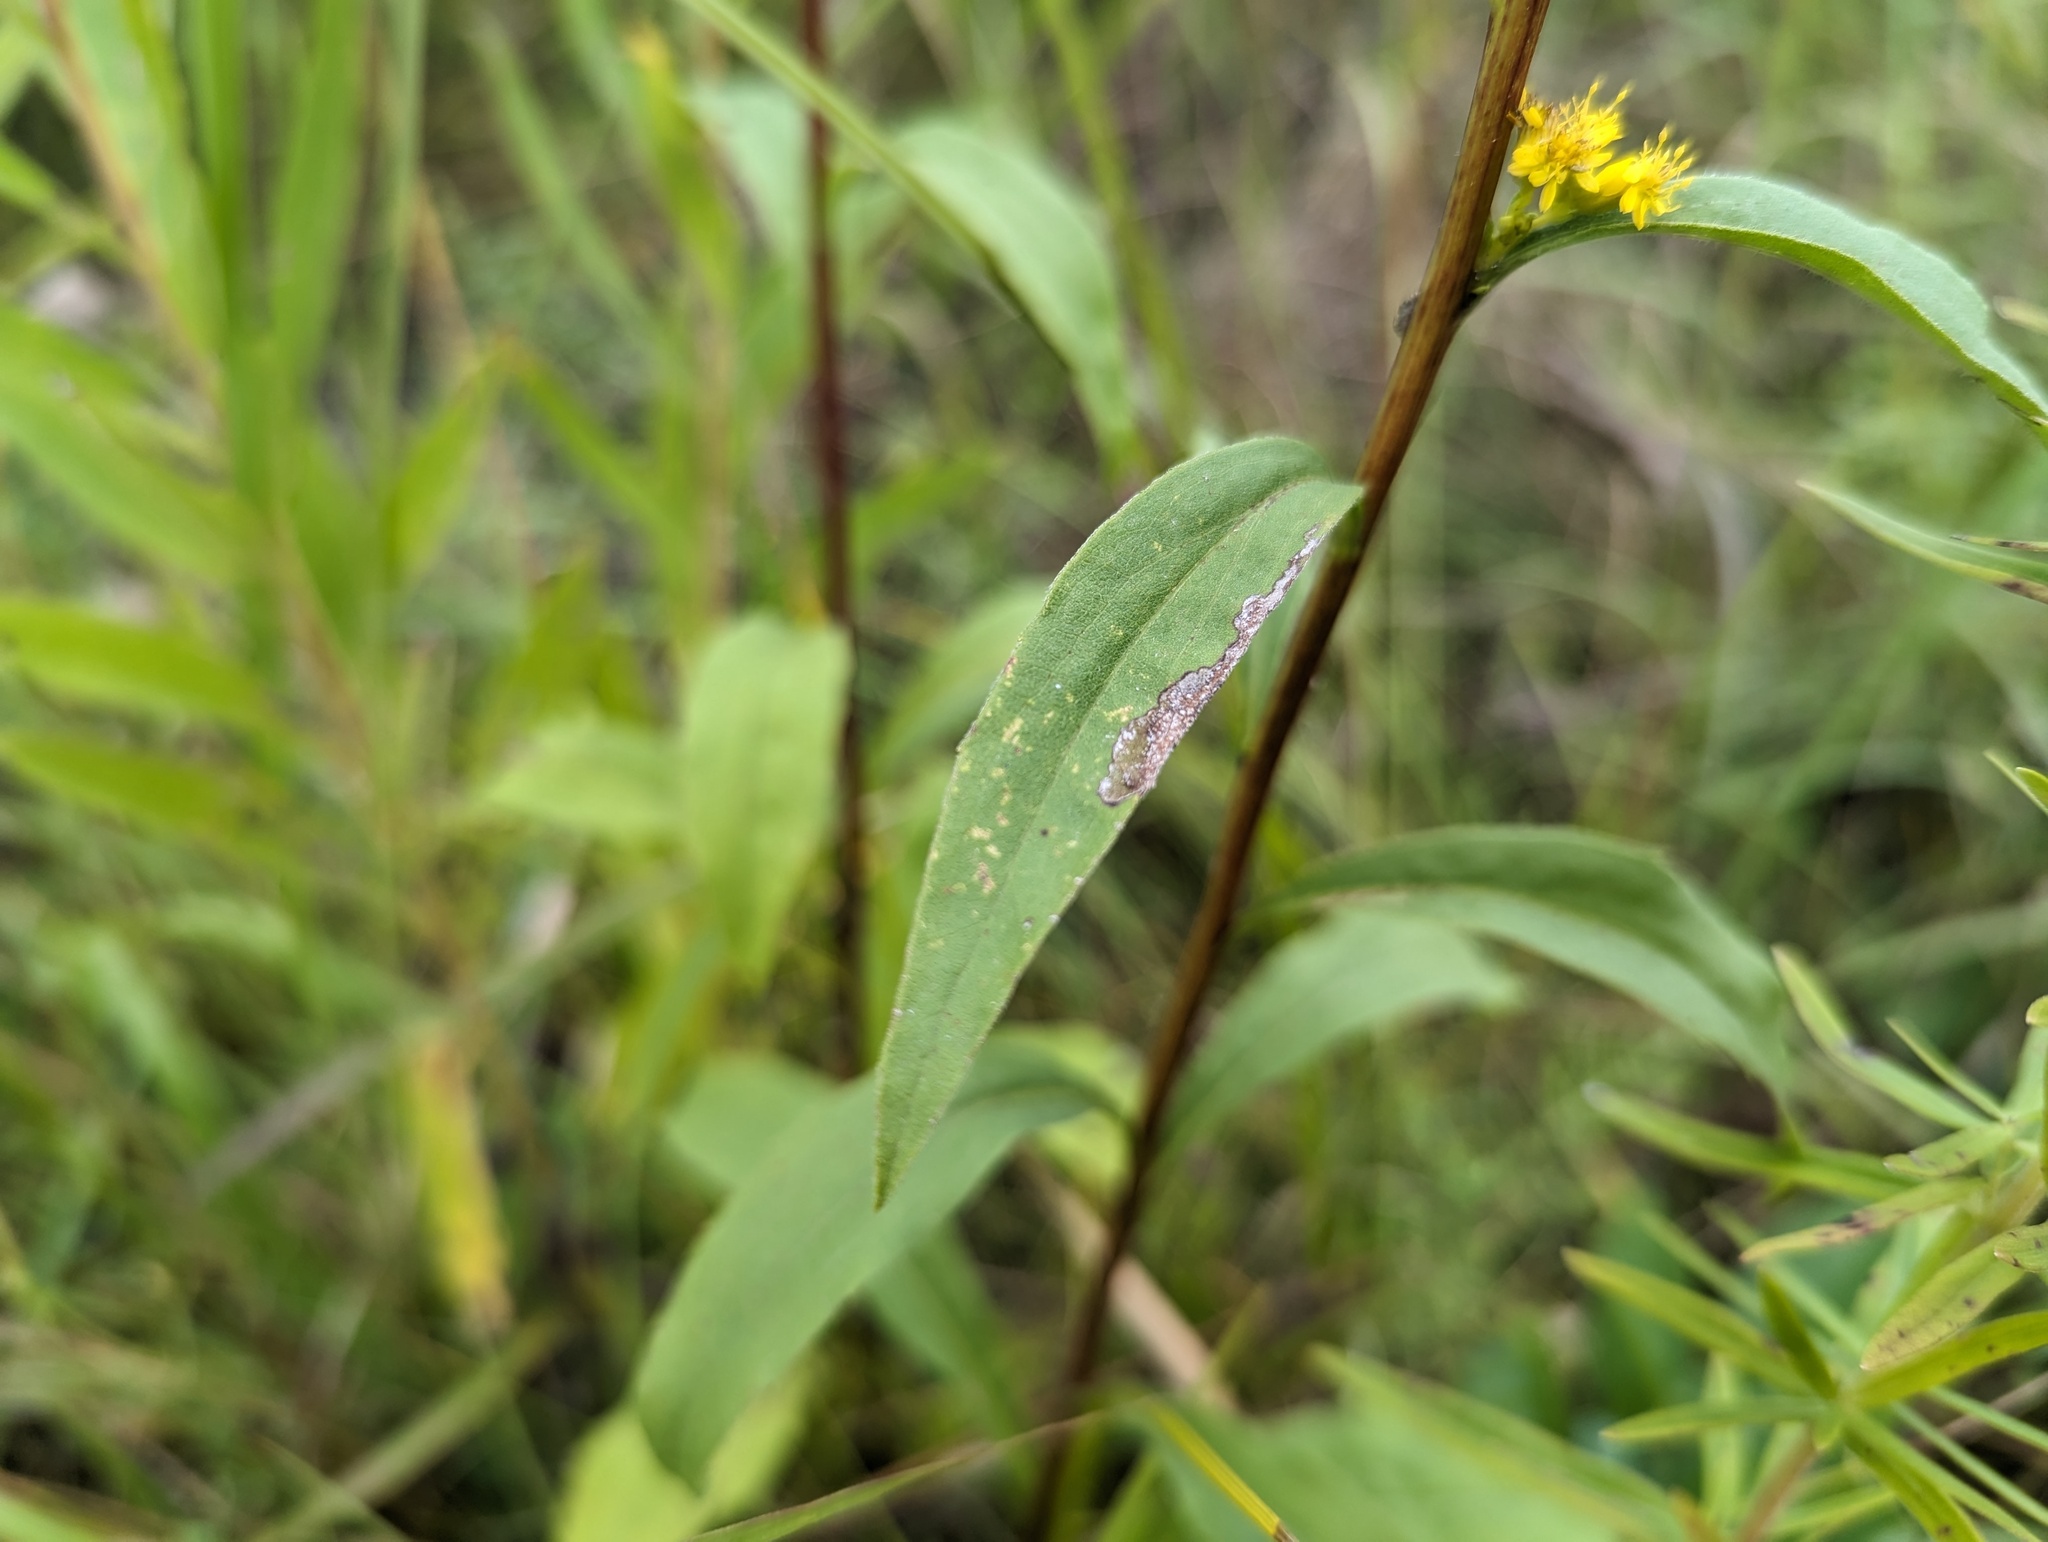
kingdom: Plantae
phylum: Tracheophyta
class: Magnoliopsida
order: Asterales
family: Asteraceae
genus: Solidago
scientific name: Solidago juncea
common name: Early goldenrod
